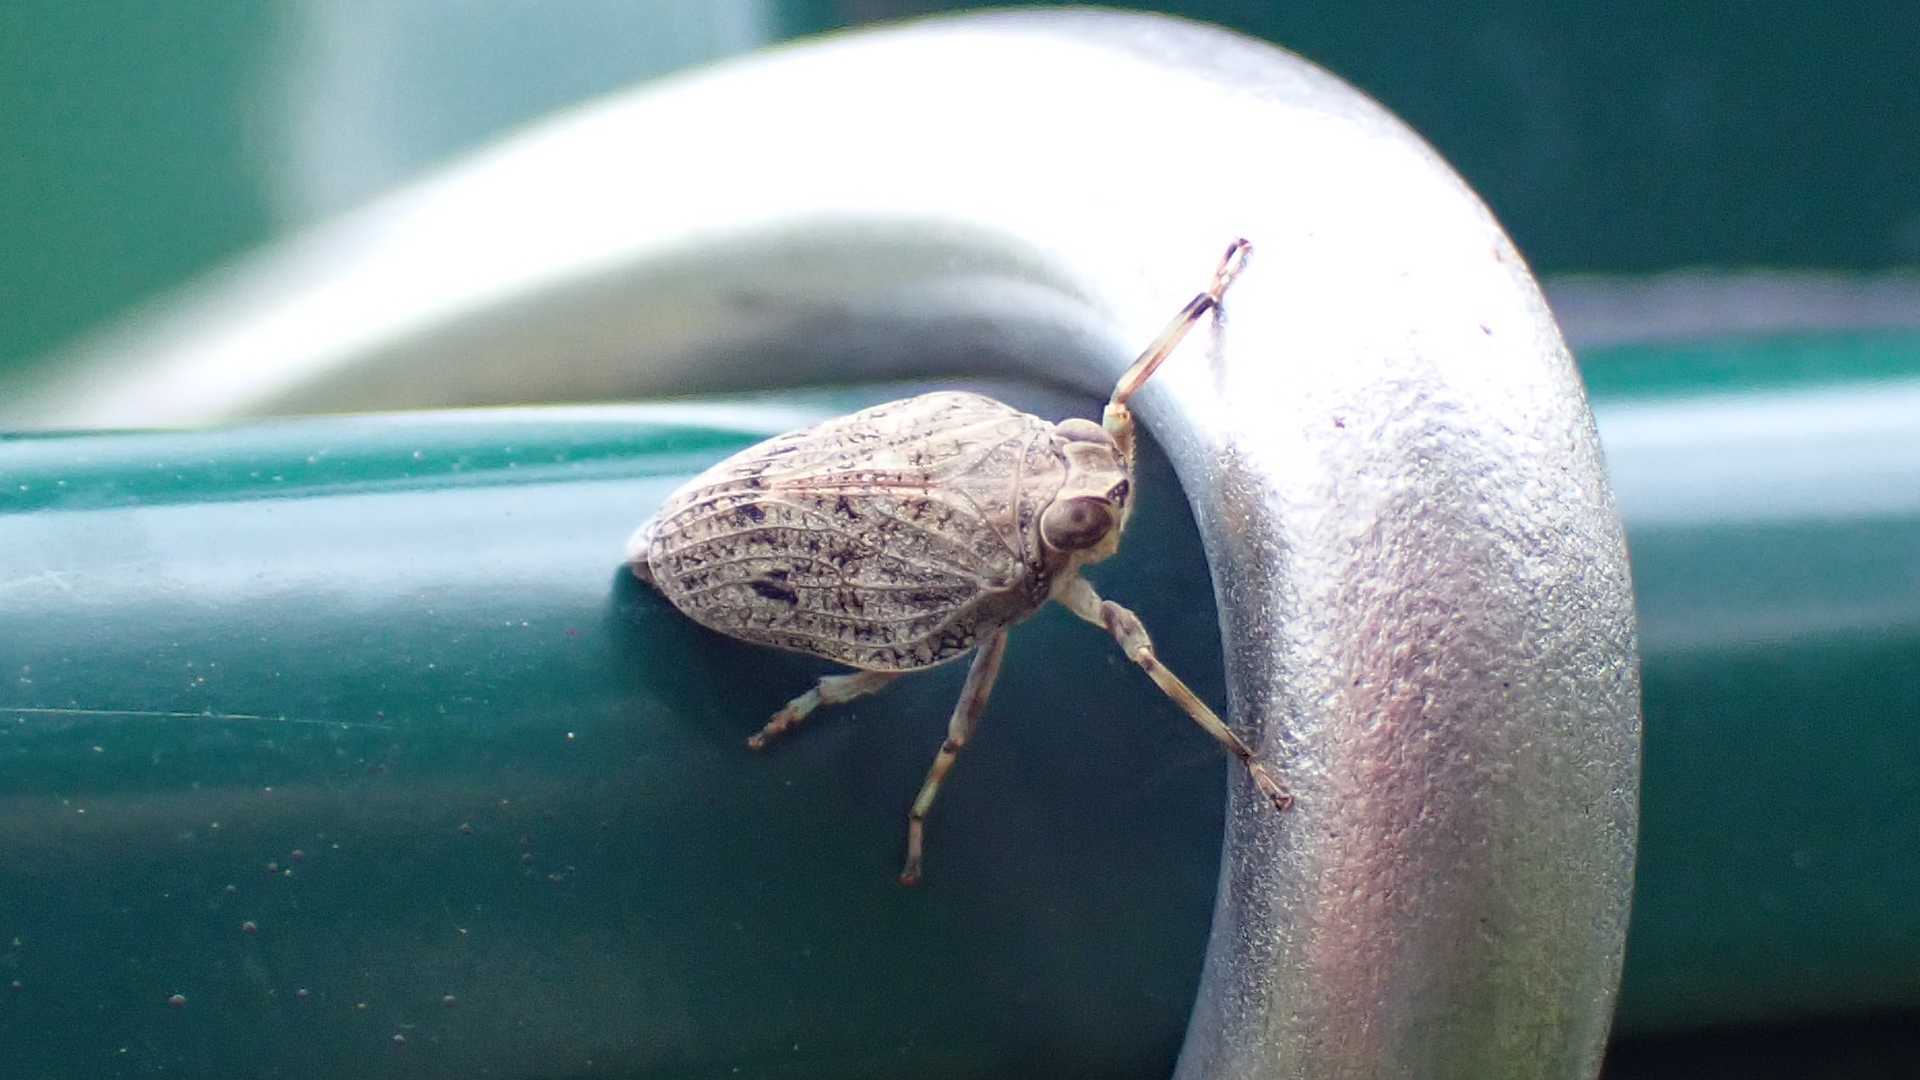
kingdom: Animalia
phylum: Arthropoda
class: Insecta
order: Hemiptera
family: Issidae
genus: Issus
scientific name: Issus coleoptratus
